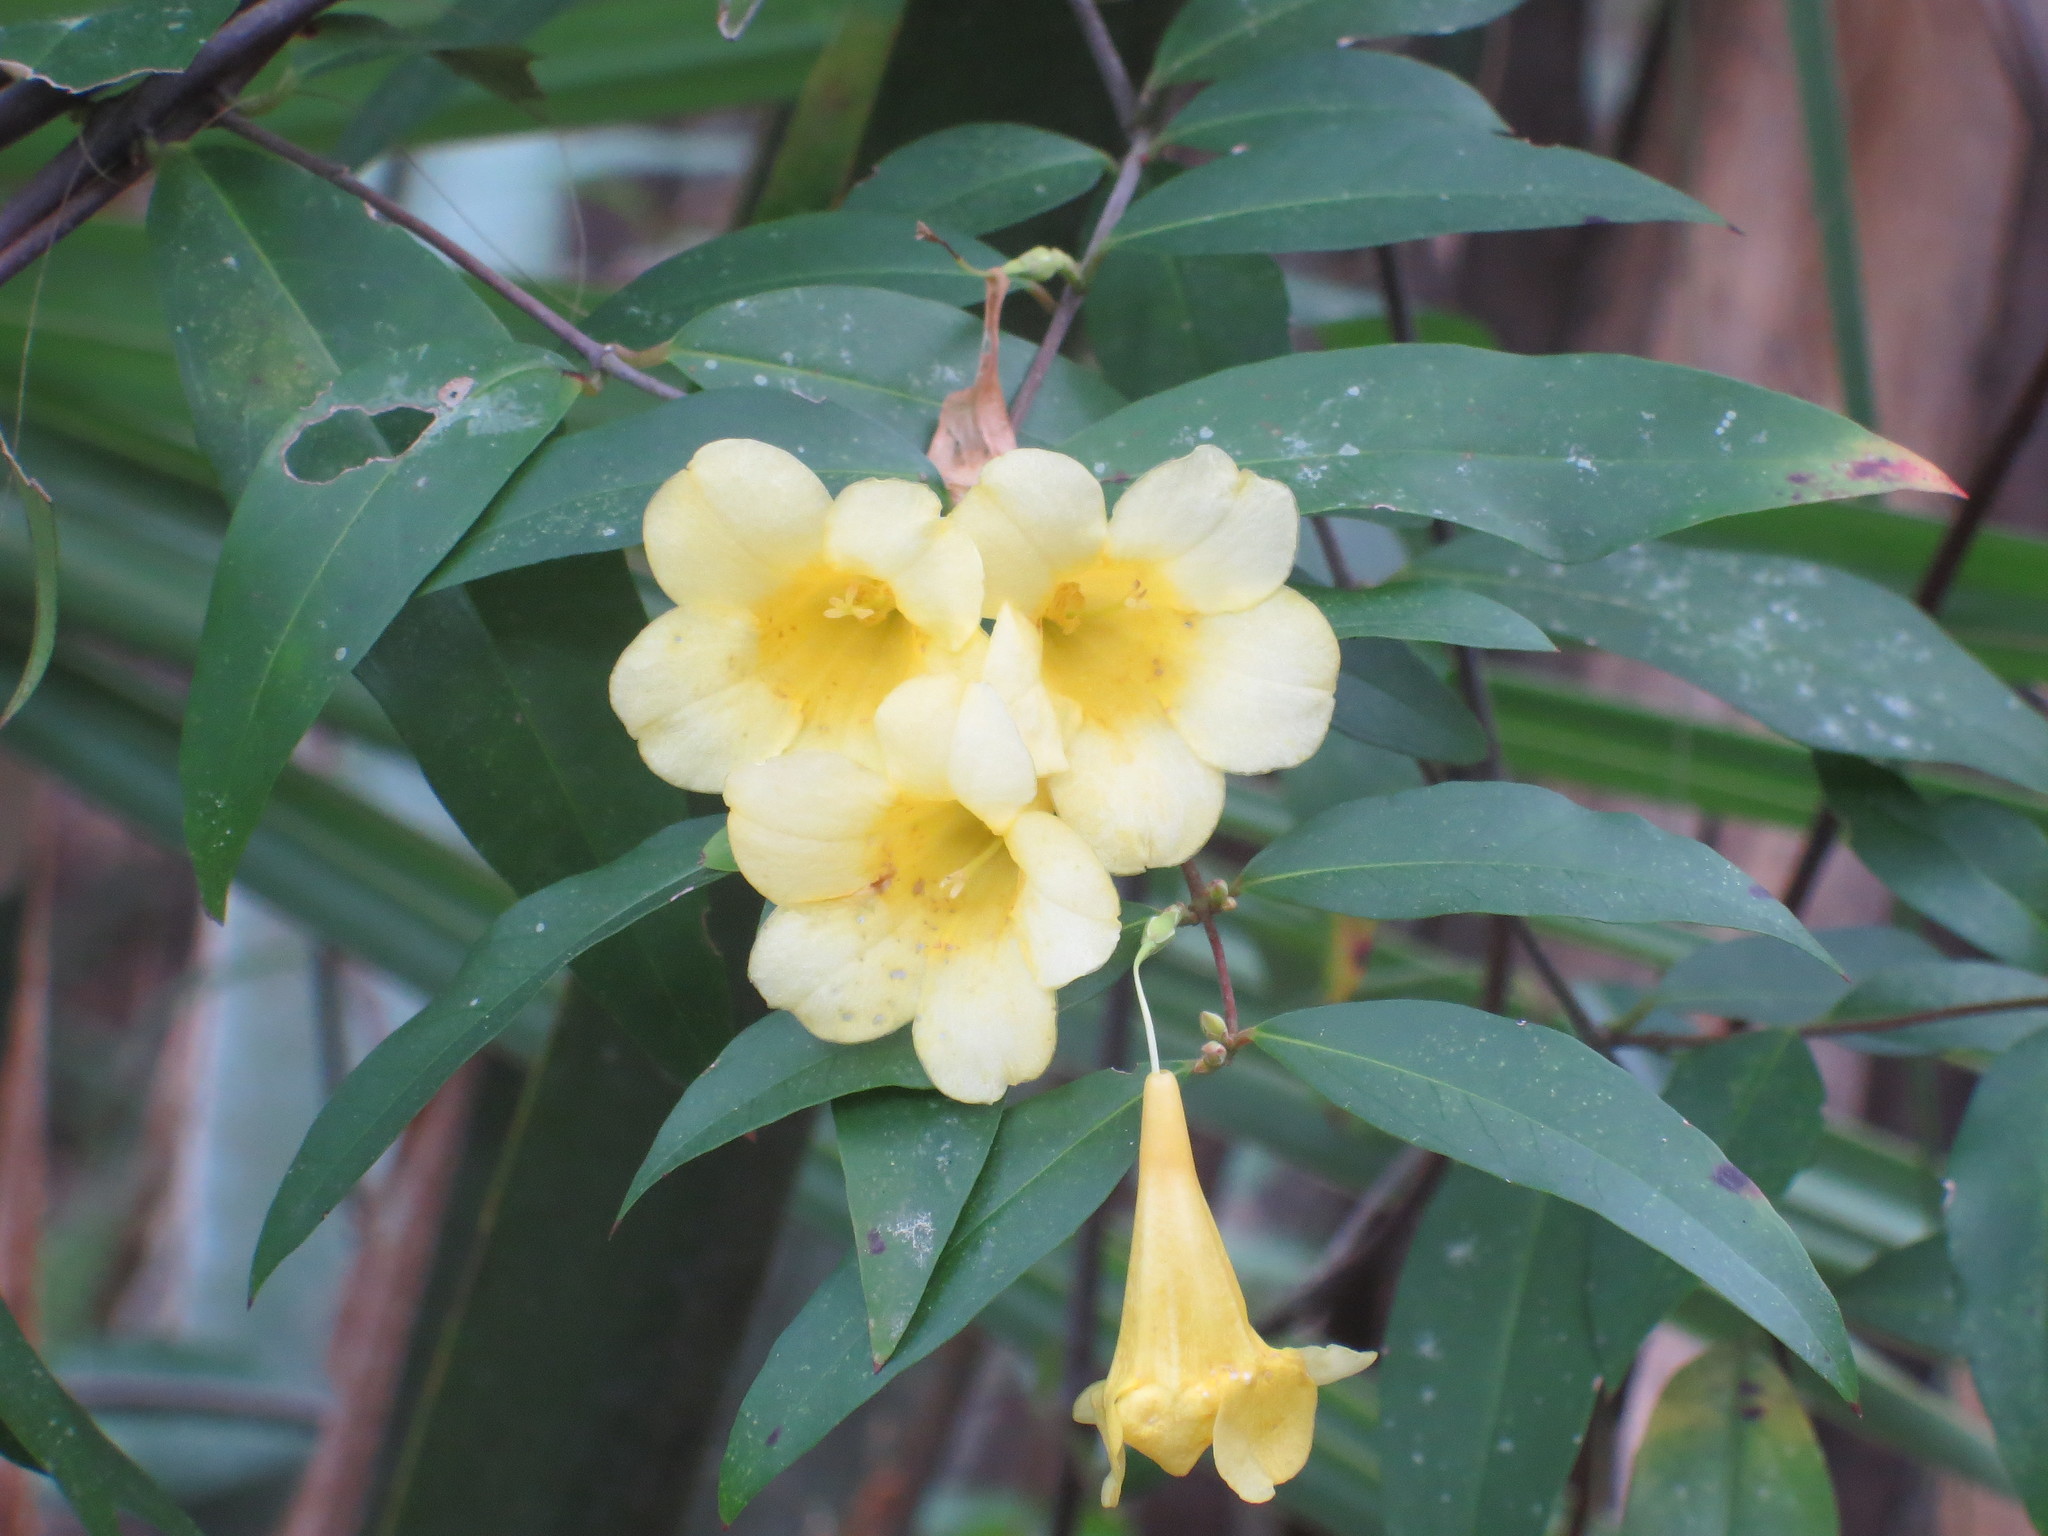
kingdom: Plantae
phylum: Tracheophyta
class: Magnoliopsida
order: Gentianales
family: Gelsemiaceae
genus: Gelsemium
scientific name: Gelsemium sempervirens
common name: Carolina-jasmine
